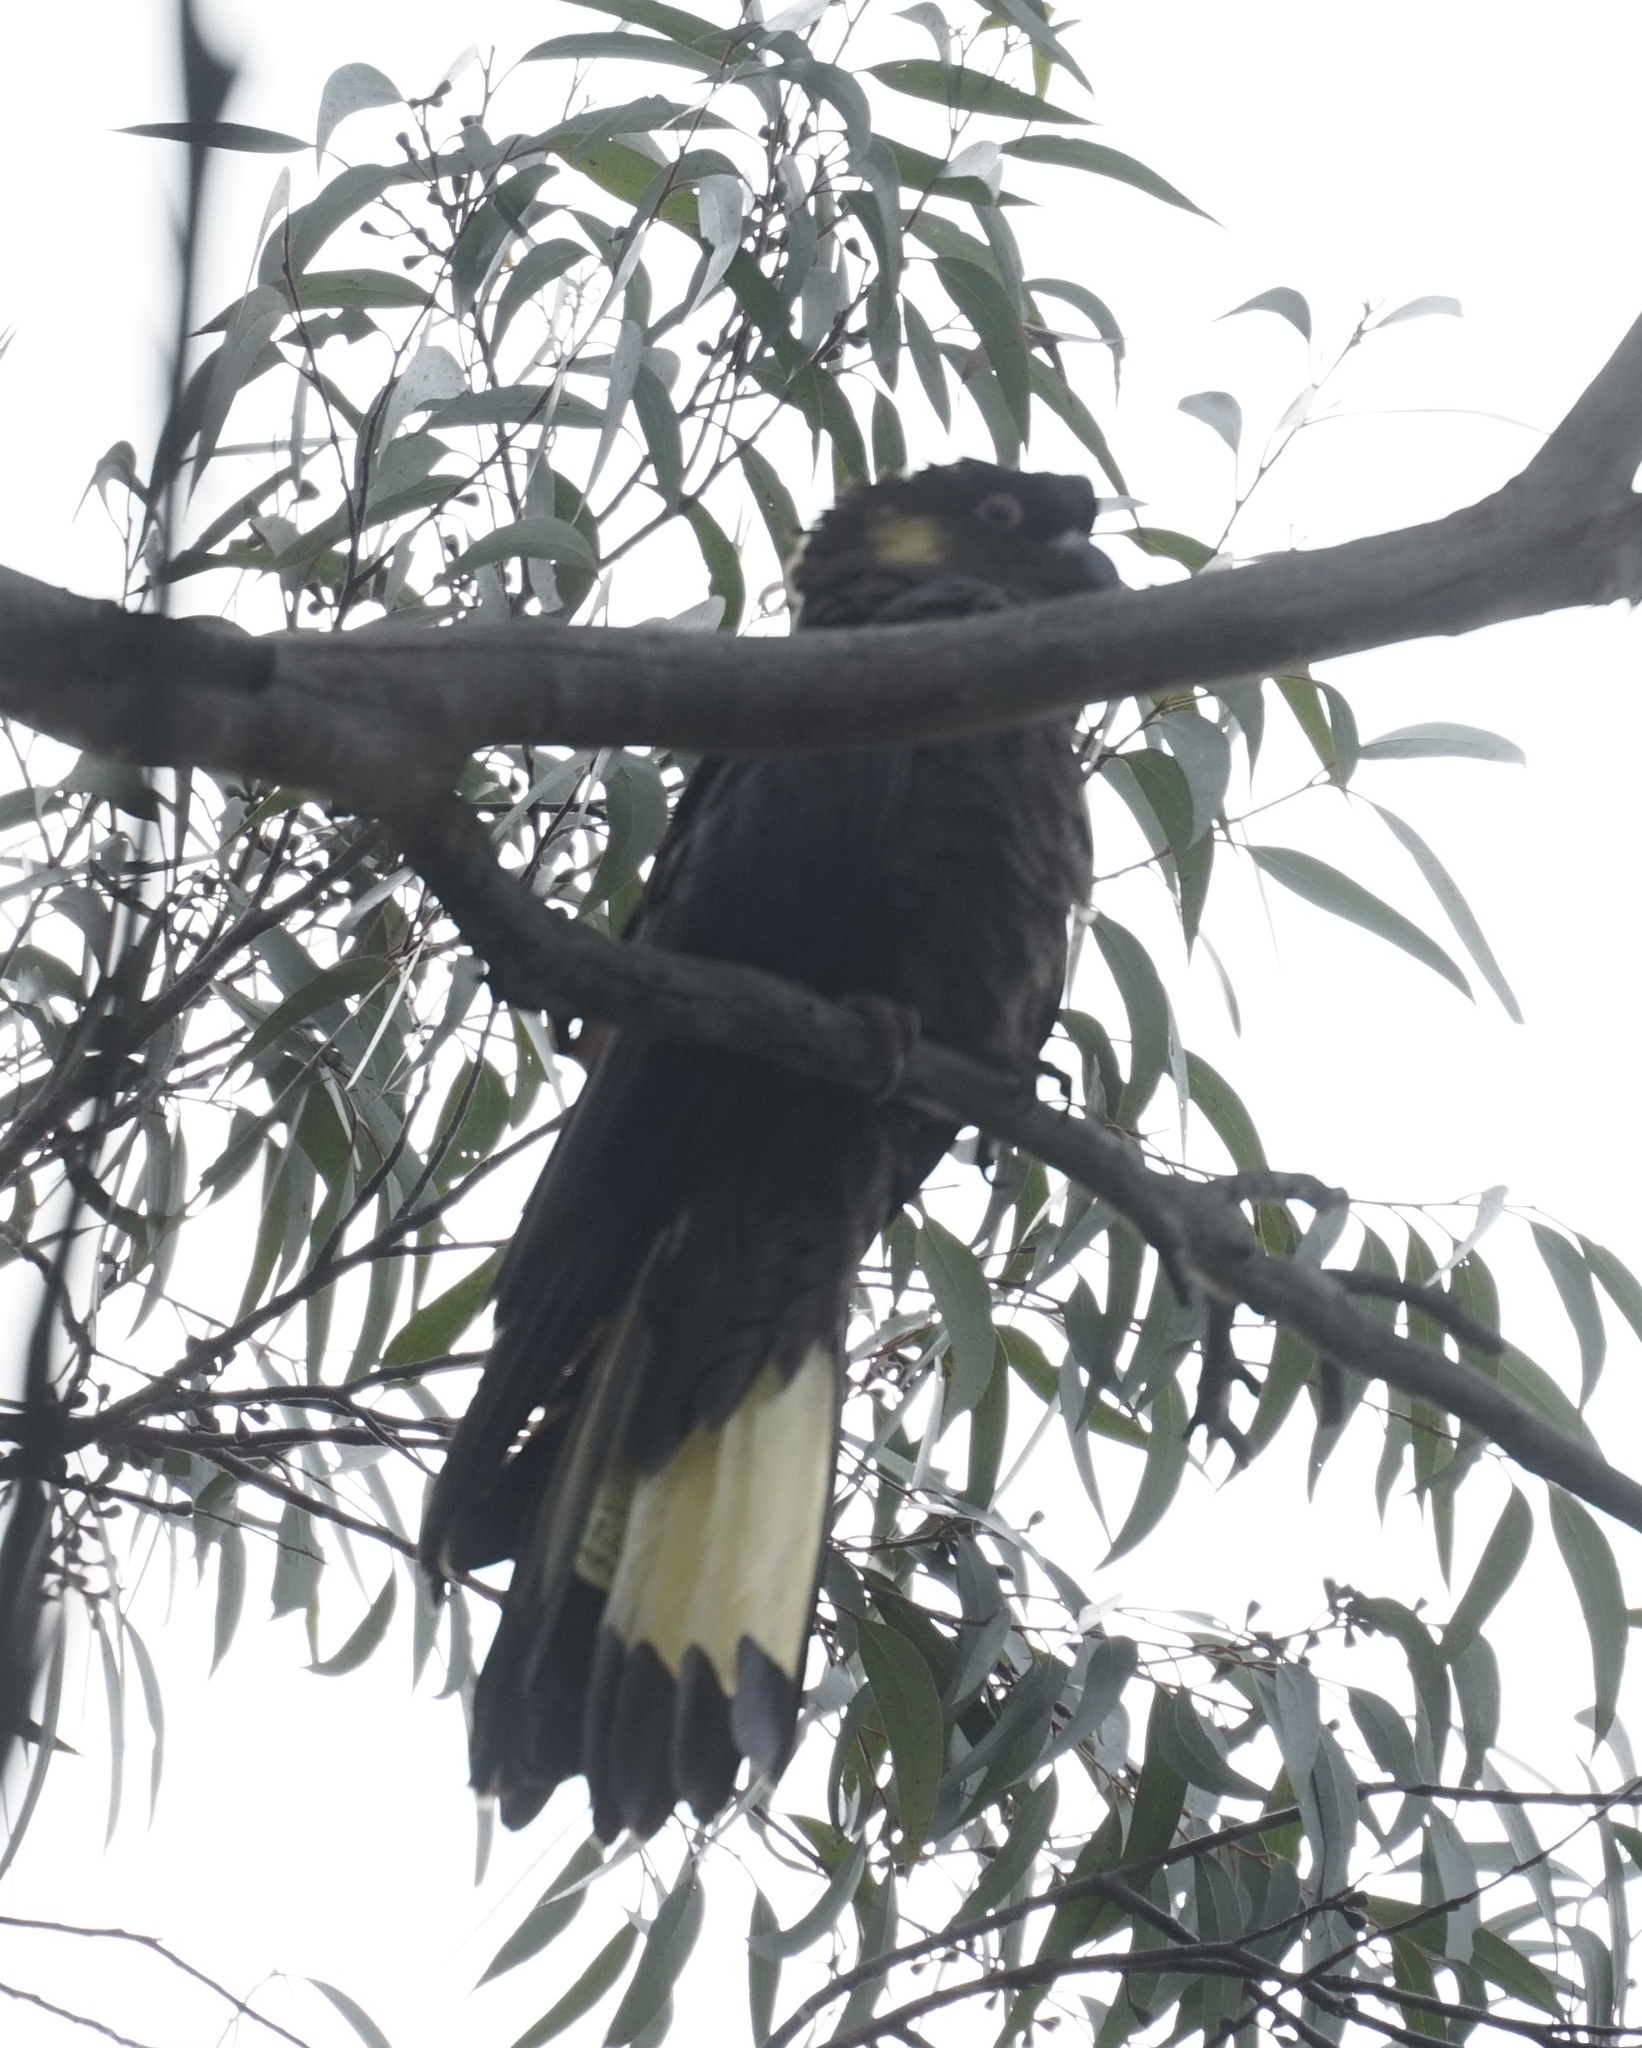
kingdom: Animalia
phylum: Chordata
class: Aves
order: Psittaciformes
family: Cacatuidae
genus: Zanda
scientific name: Zanda funerea
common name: Yellow-tailed black-cockatoo
